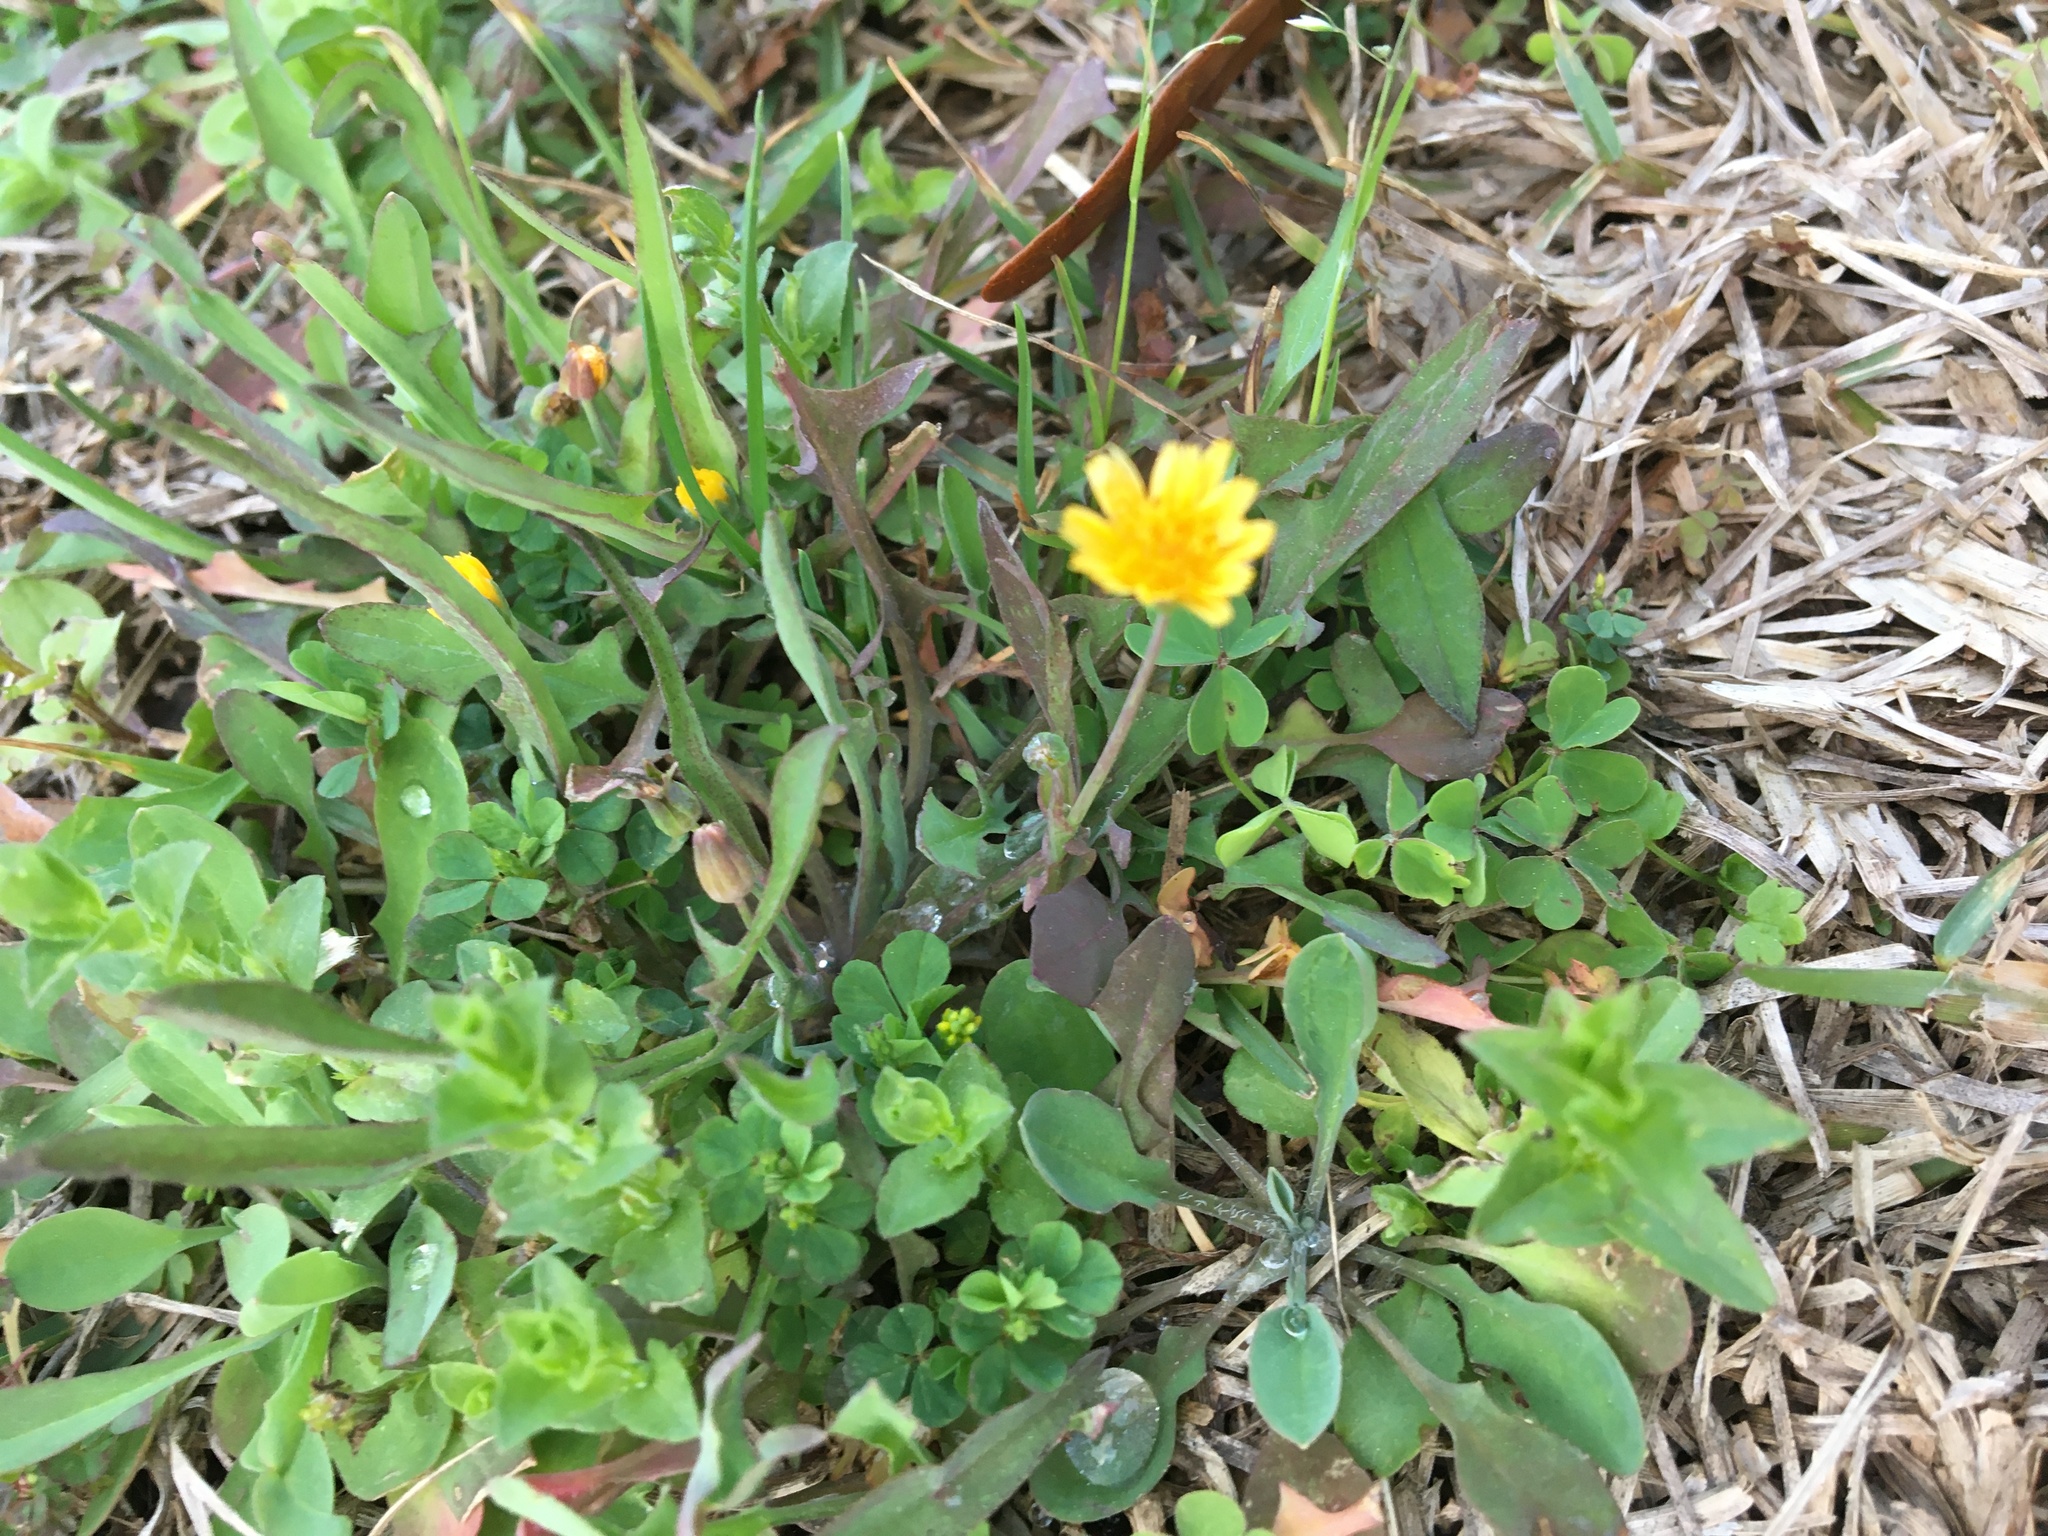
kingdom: Plantae
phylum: Tracheophyta
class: Magnoliopsida
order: Asterales
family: Asteraceae
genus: Krigia
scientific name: Krigia cespitosa
